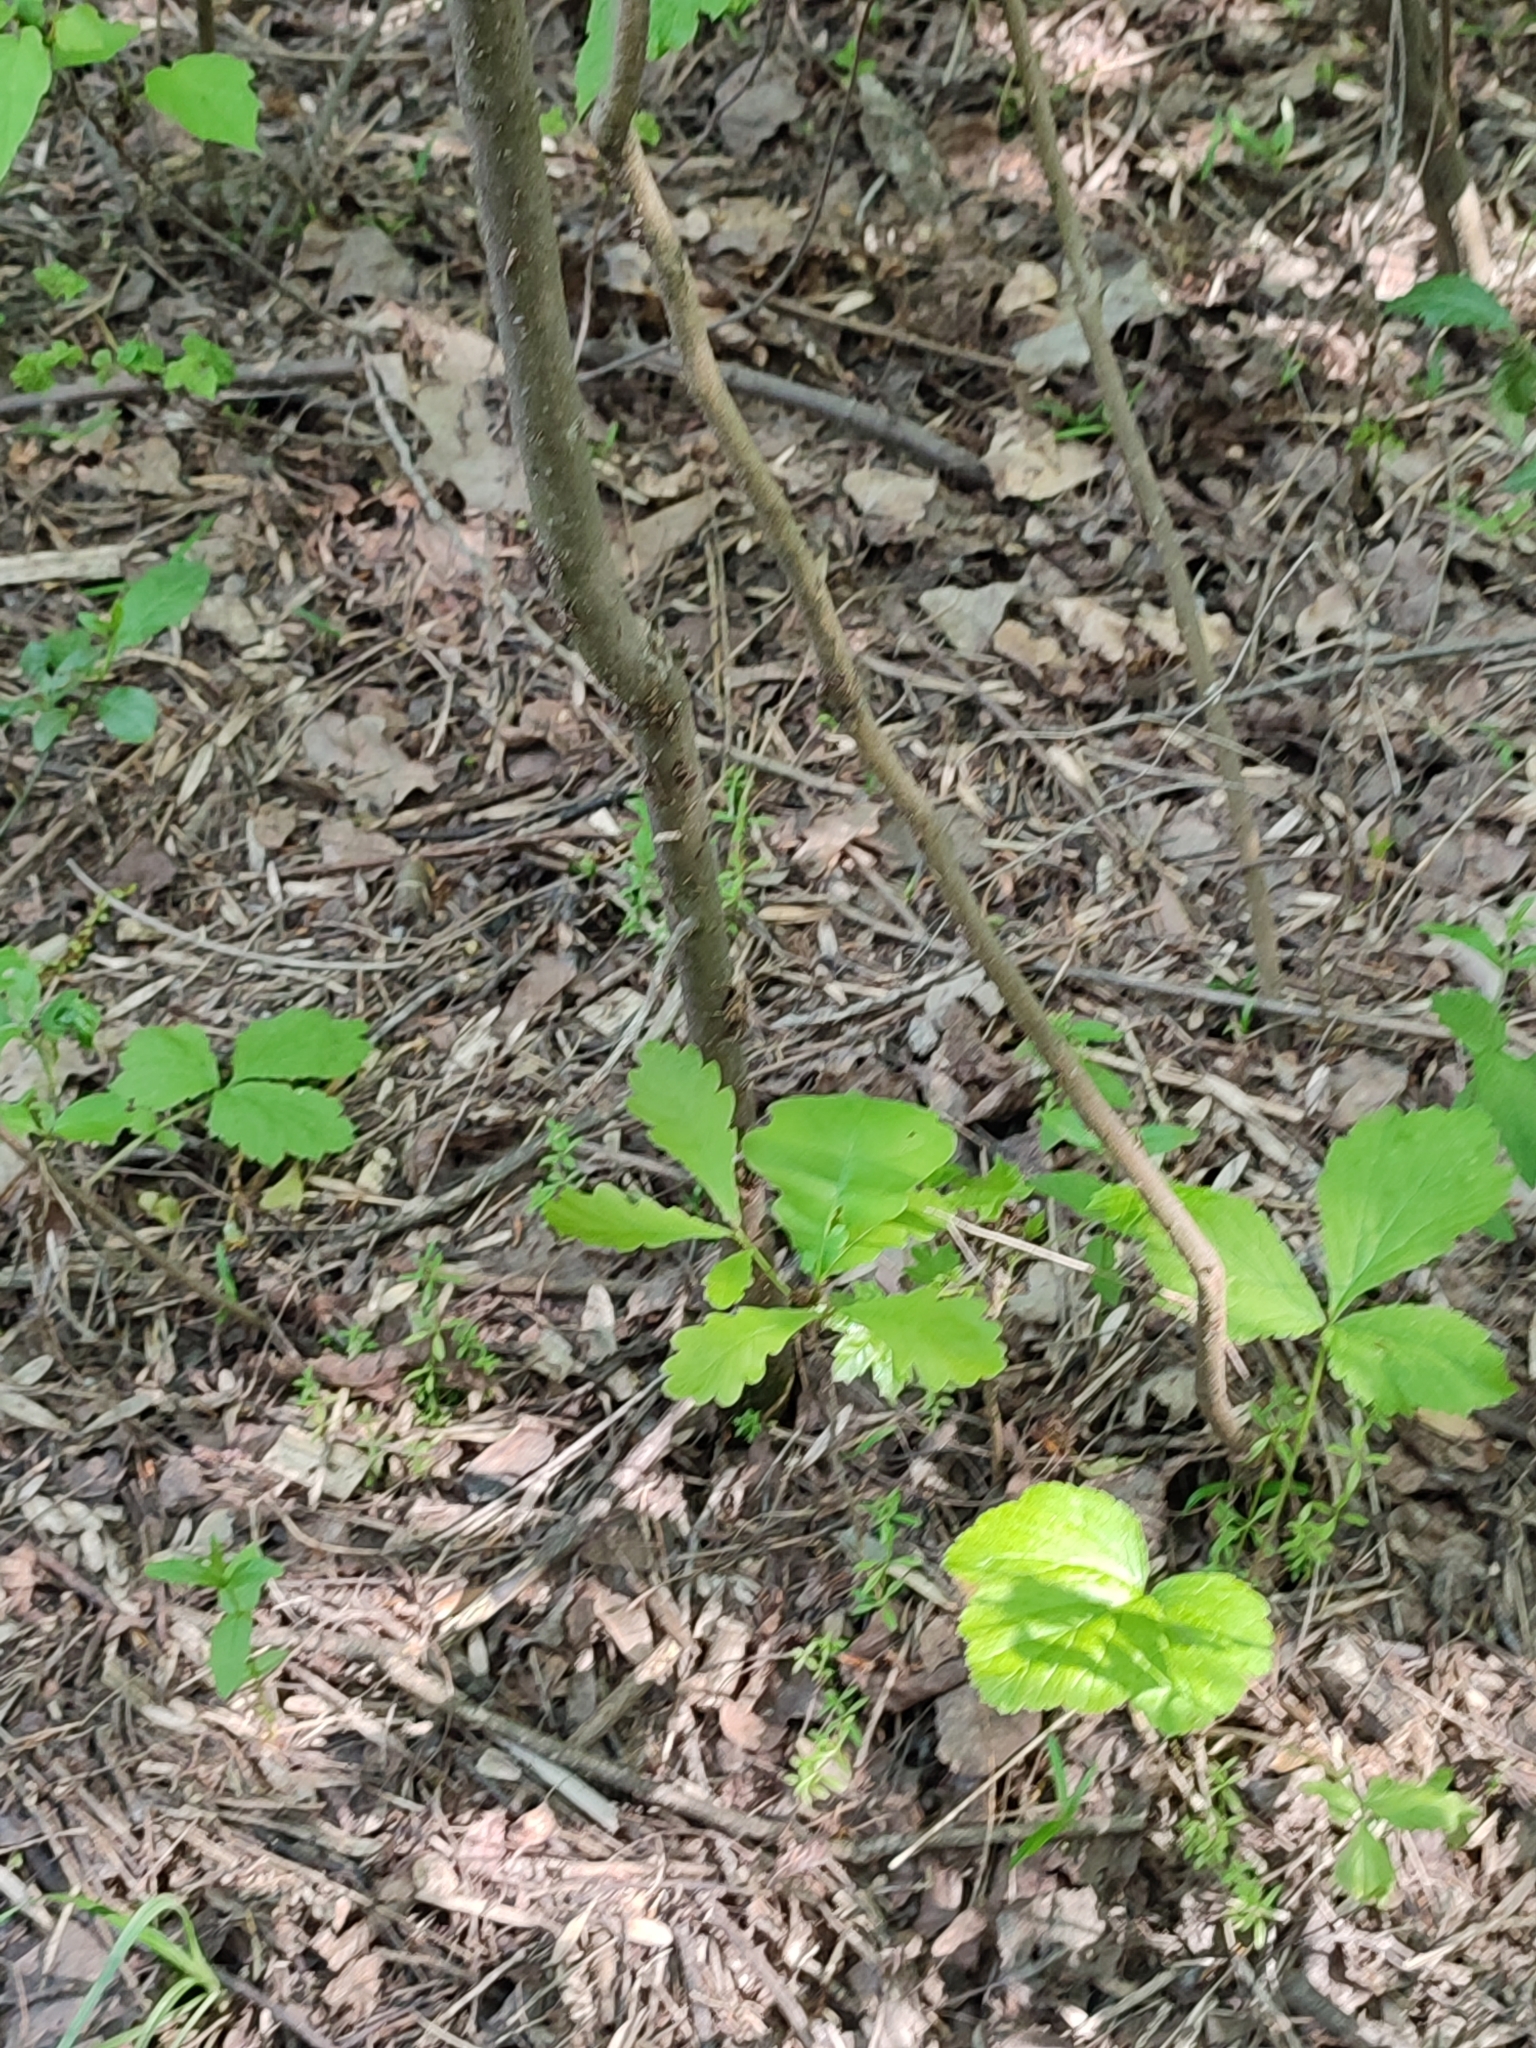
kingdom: Plantae
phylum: Tracheophyta
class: Magnoliopsida
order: Fagales
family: Fagaceae
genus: Quercus
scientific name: Quercus robur
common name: Pedunculate oak
